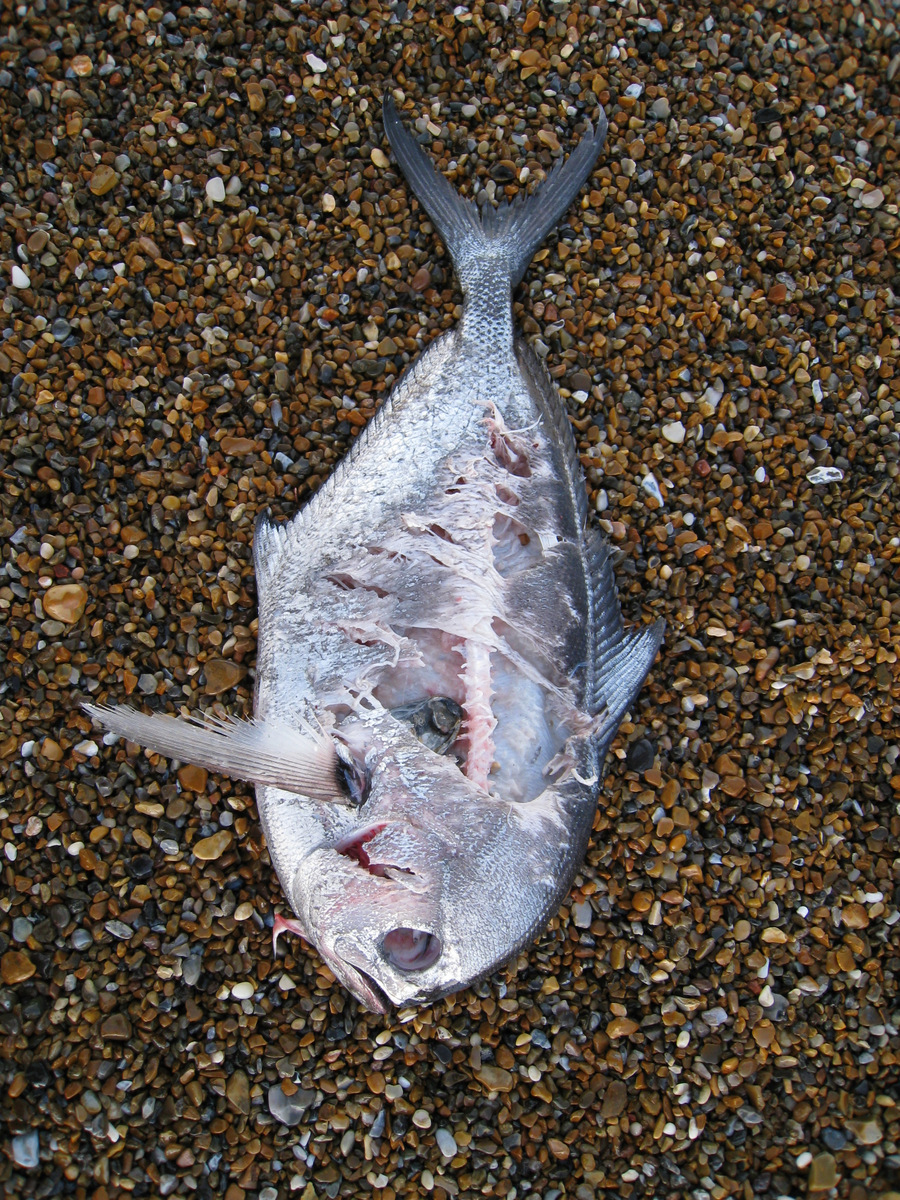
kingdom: Animalia
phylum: Chordata
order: Perciformes
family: Bramidae
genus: Brama
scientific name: Brama brama
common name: Ray's bream
